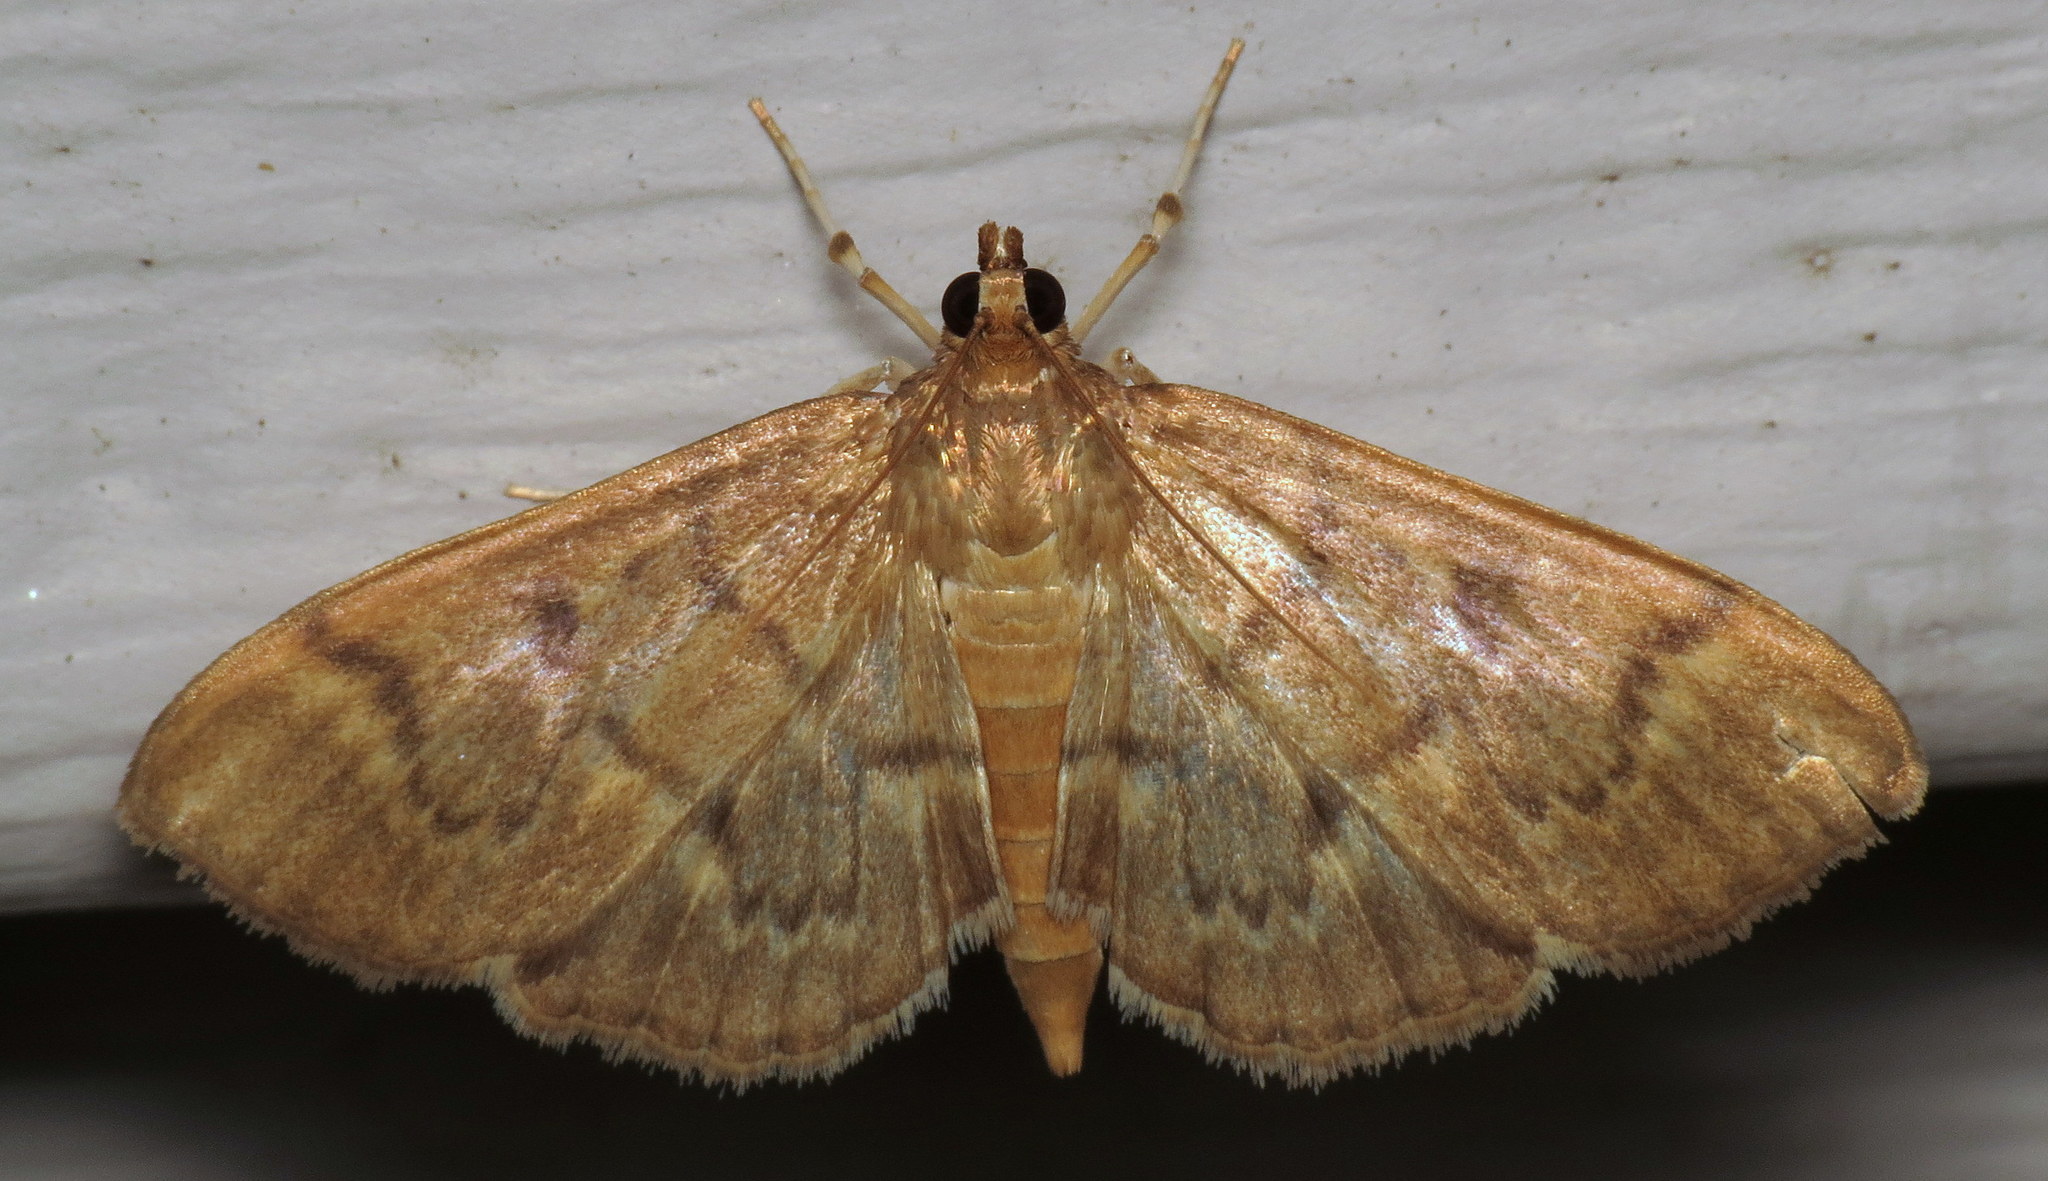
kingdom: Animalia
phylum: Arthropoda
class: Insecta
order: Lepidoptera
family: Crambidae
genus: Herpetogramma
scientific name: Herpetogramma aeglealis
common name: Serpentine webworm moth
